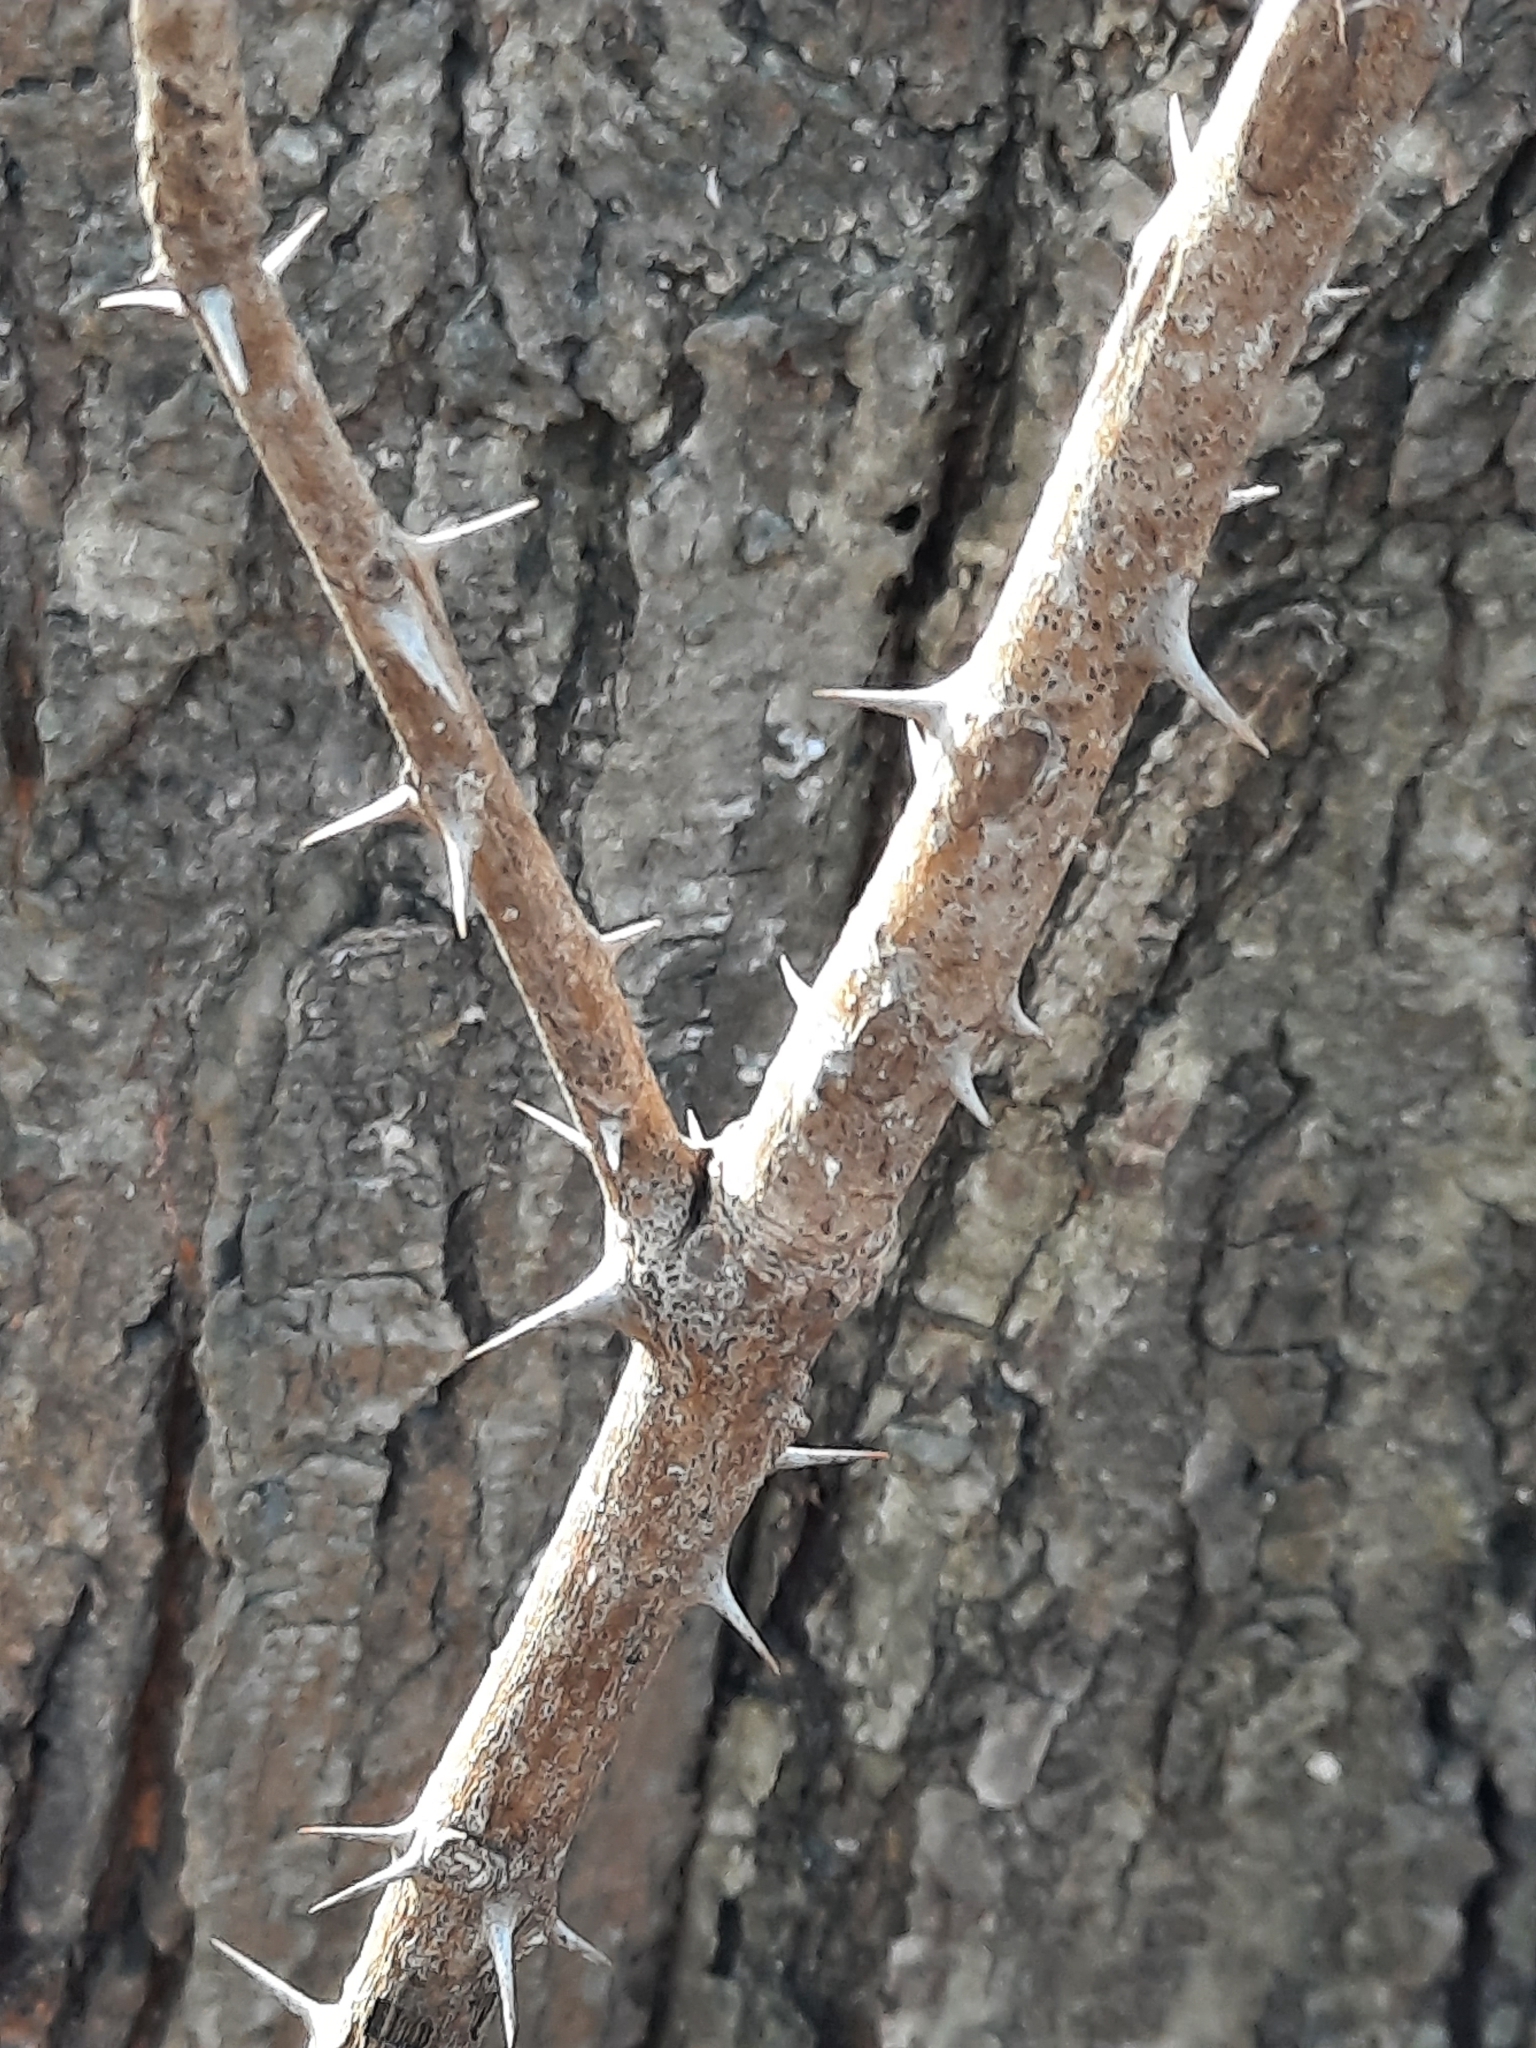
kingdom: Plantae
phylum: Tracheophyta
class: Magnoliopsida
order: Apiales
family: Araliaceae
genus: Kalopanax
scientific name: Kalopanax septemlobus
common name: Castor aralia
